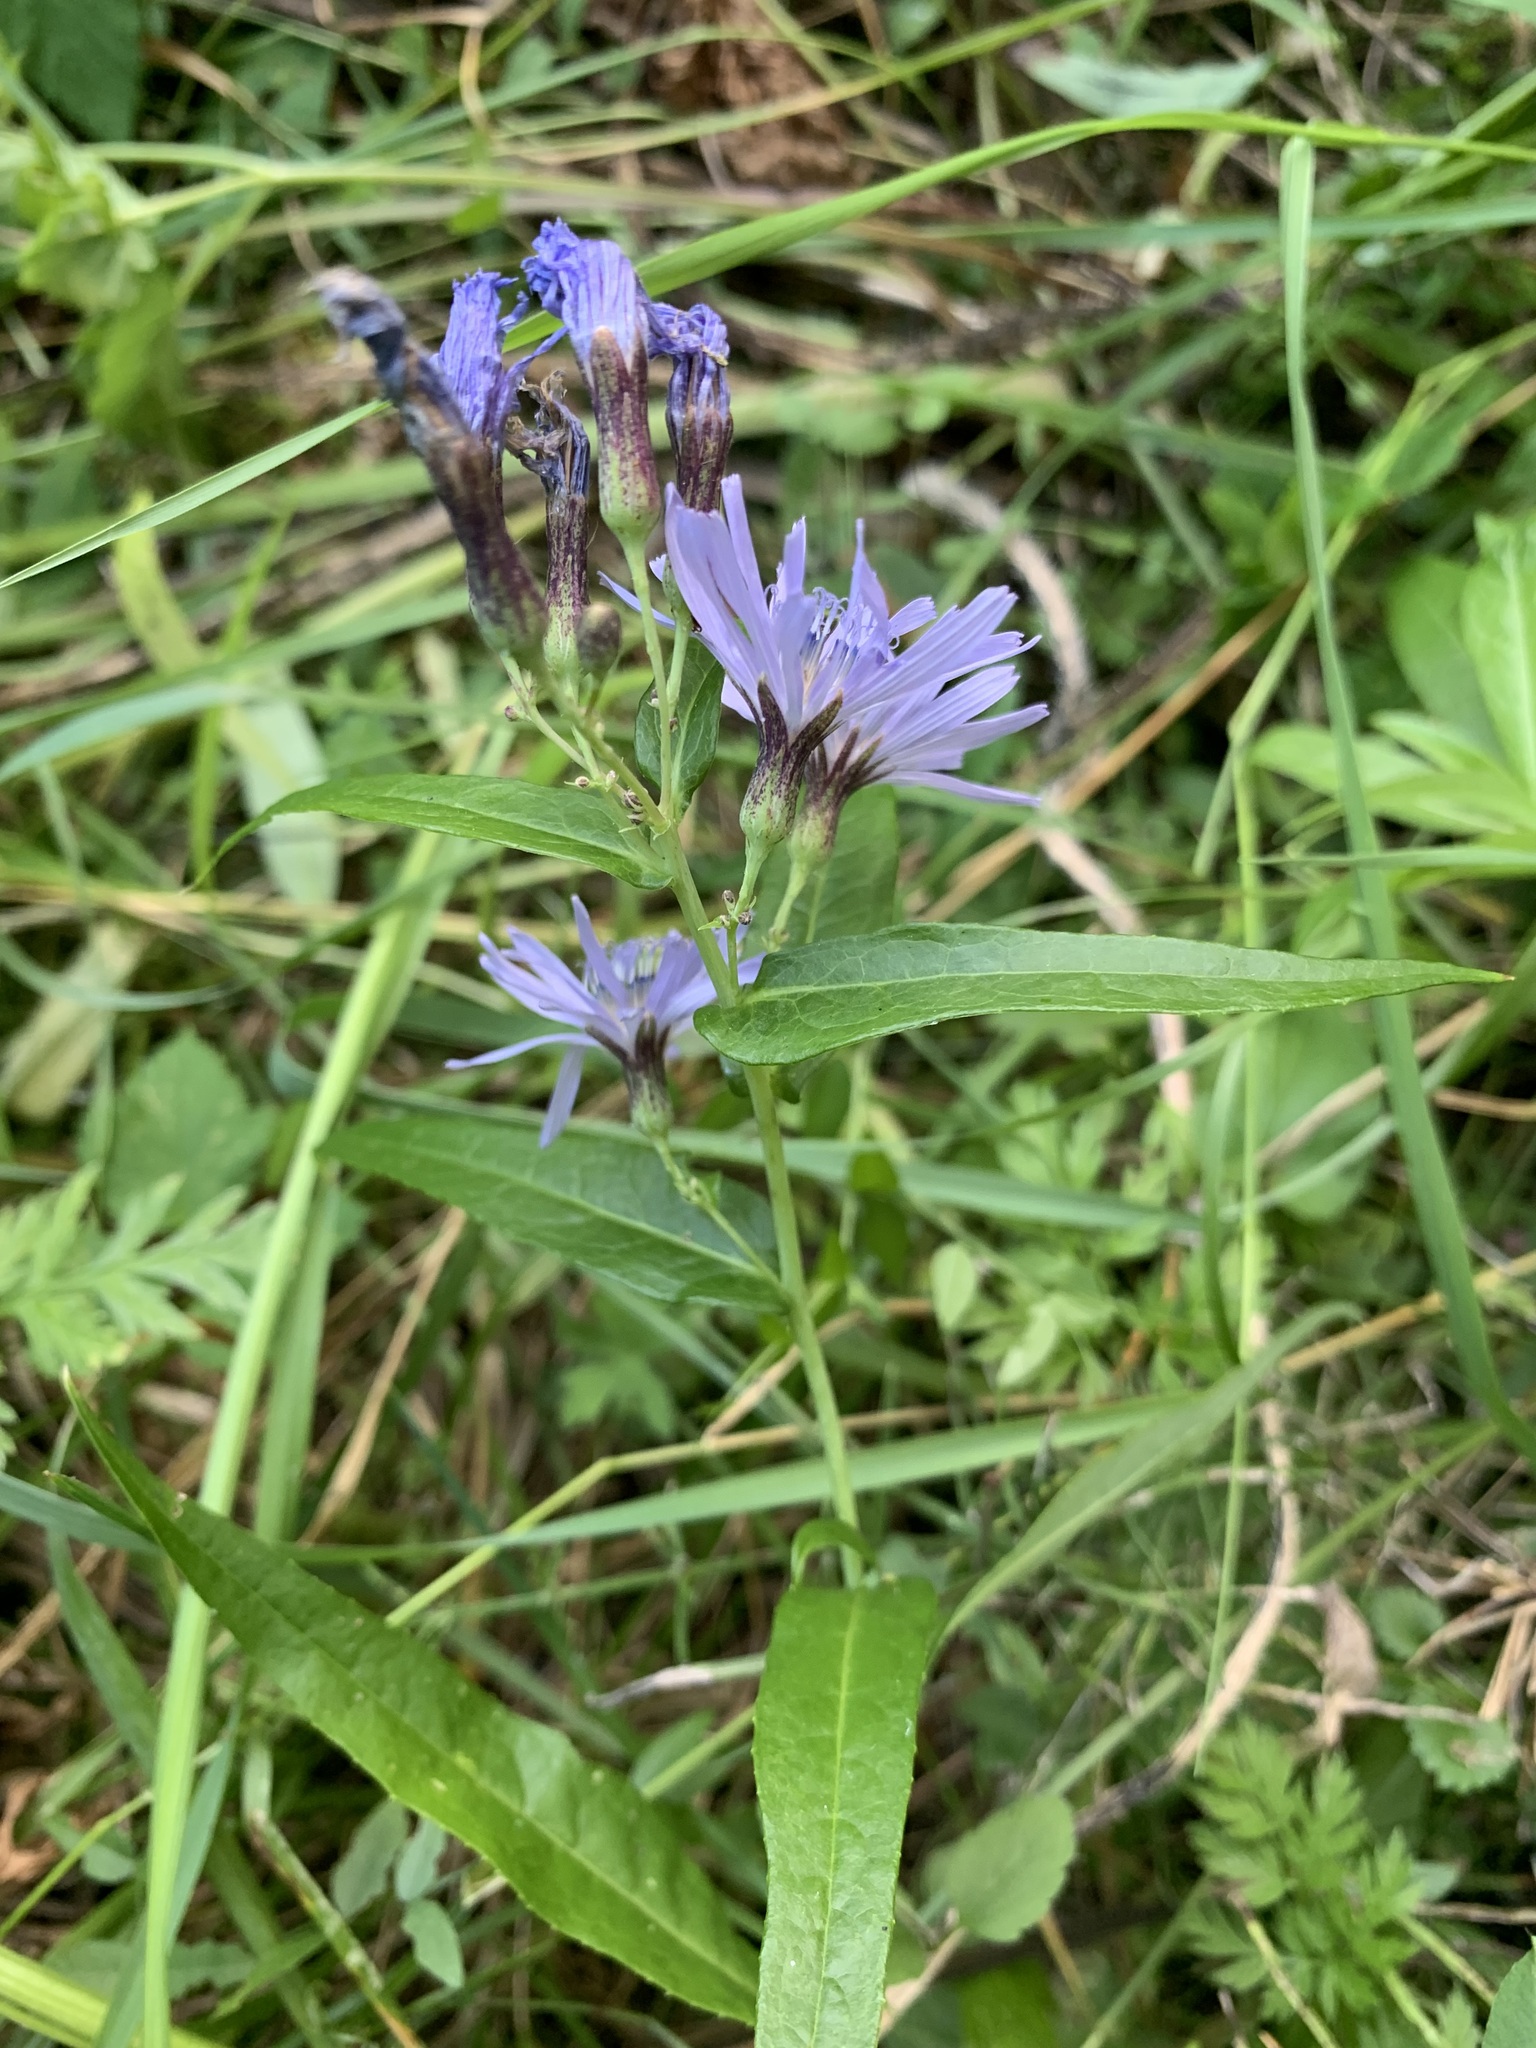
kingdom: Plantae
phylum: Tracheophyta
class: Magnoliopsida
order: Asterales
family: Asteraceae
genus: Lactuca
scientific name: Lactuca sibirica
